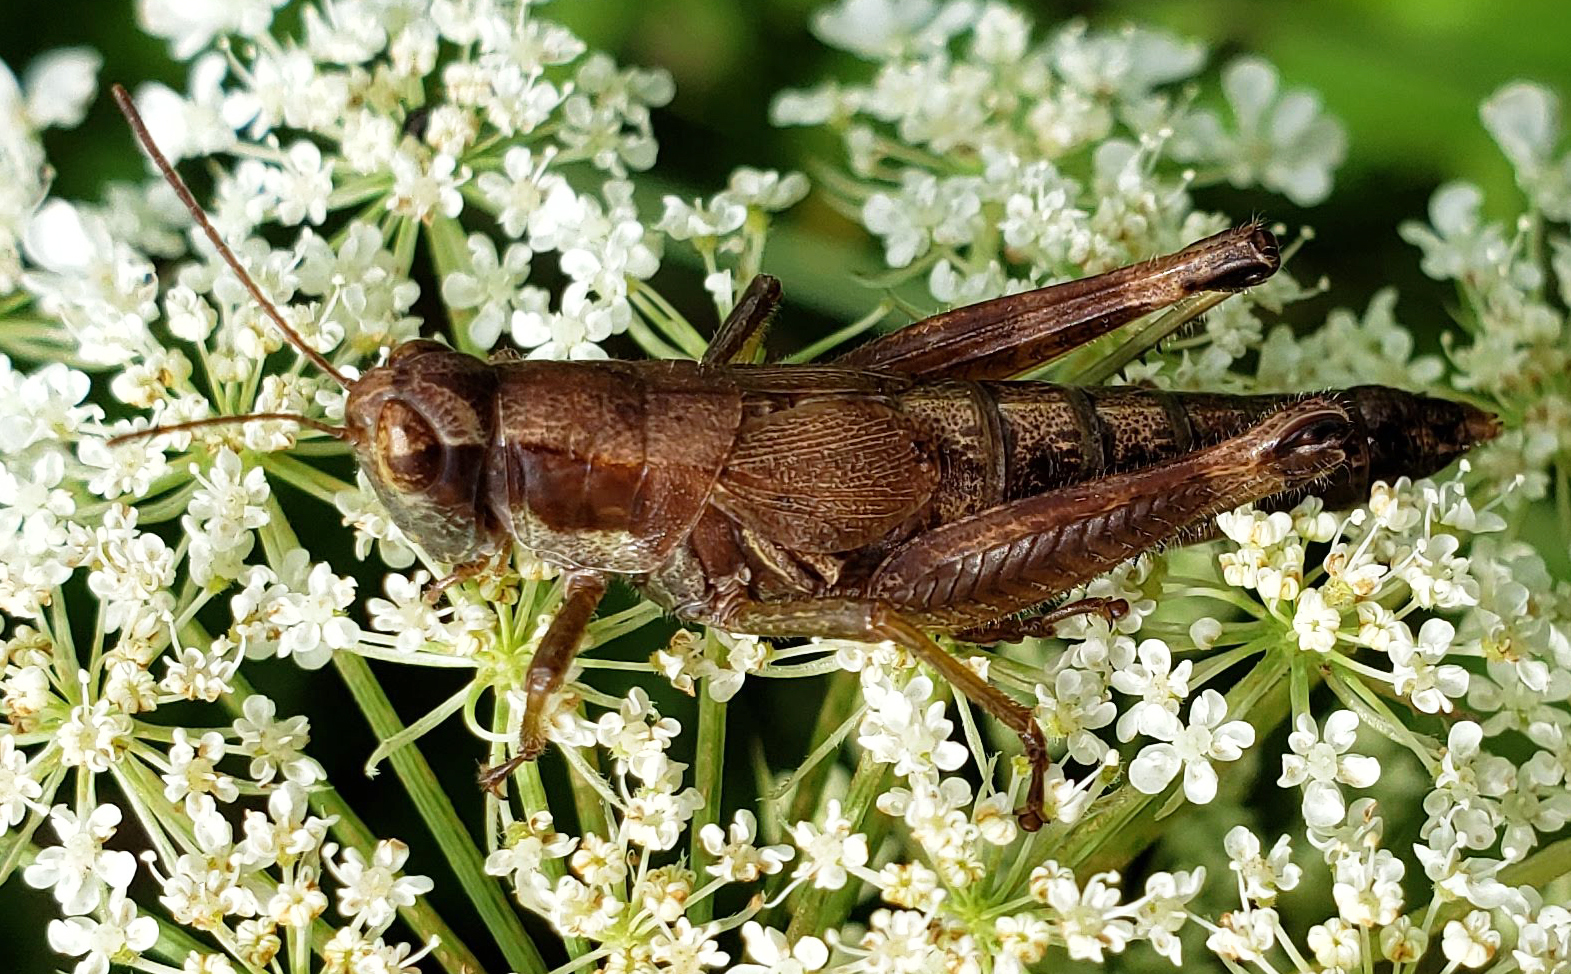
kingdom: Animalia
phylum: Arthropoda
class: Insecta
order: Orthoptera
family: Acrididae
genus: Melanoplus
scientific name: Melanoplus viridipes
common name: Green-legged locust
